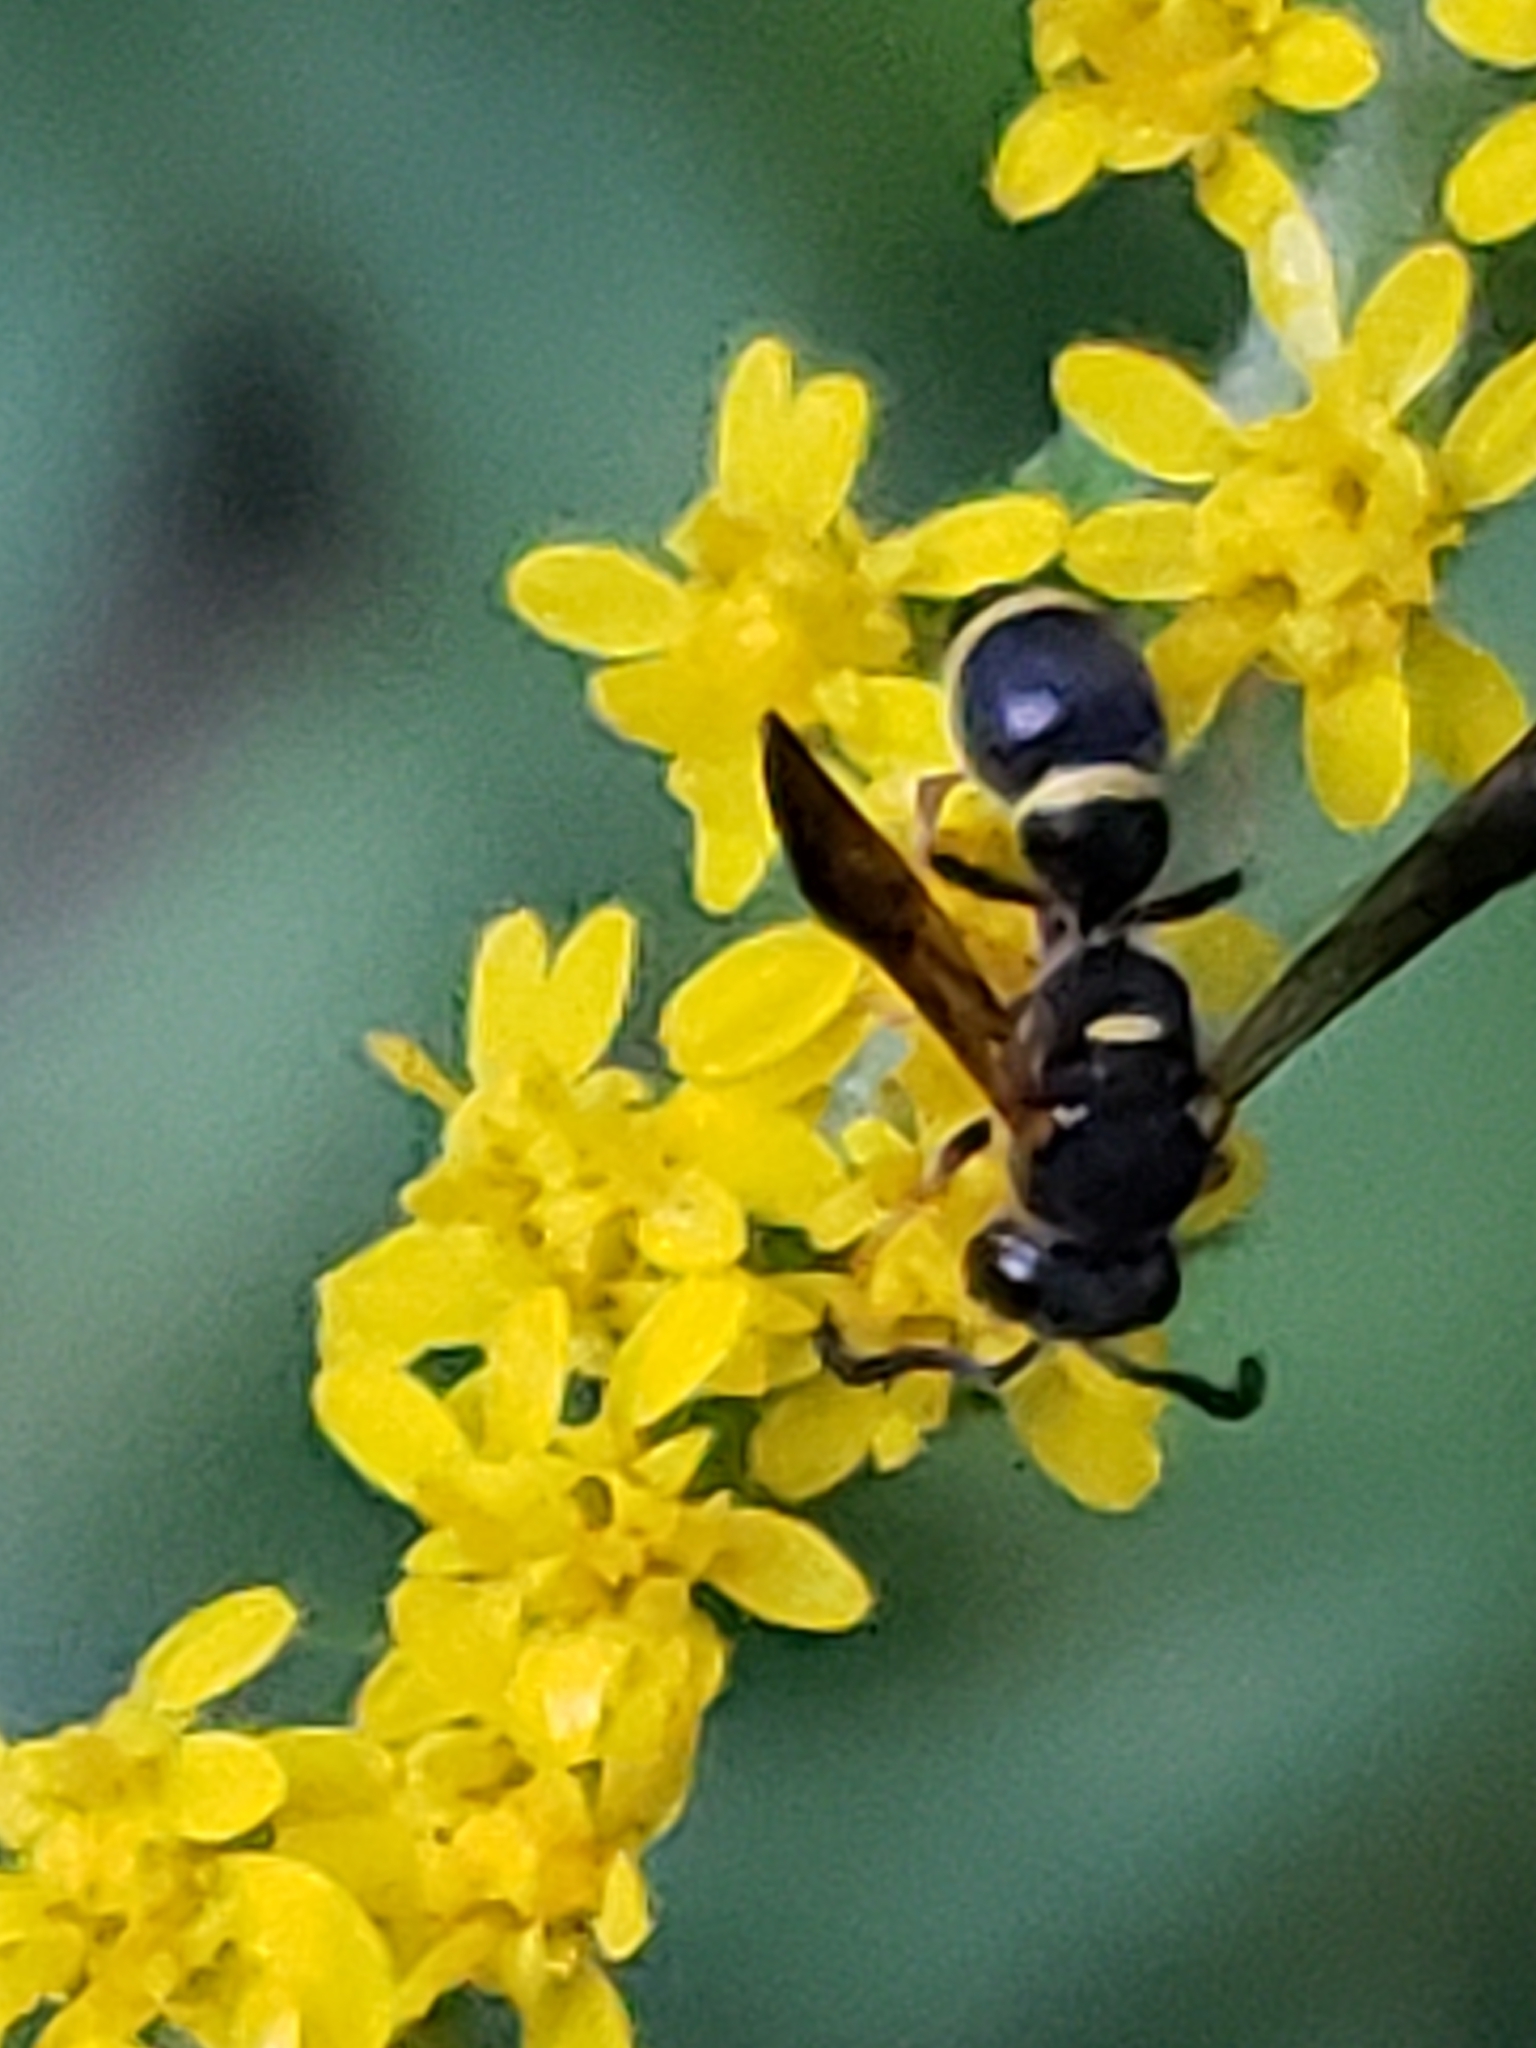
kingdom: Animalia
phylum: Arthropoda
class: Insecta
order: Hymenoptera
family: Eumenidae
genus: Parancistrocerus
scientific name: Parancistrocerus perennis
